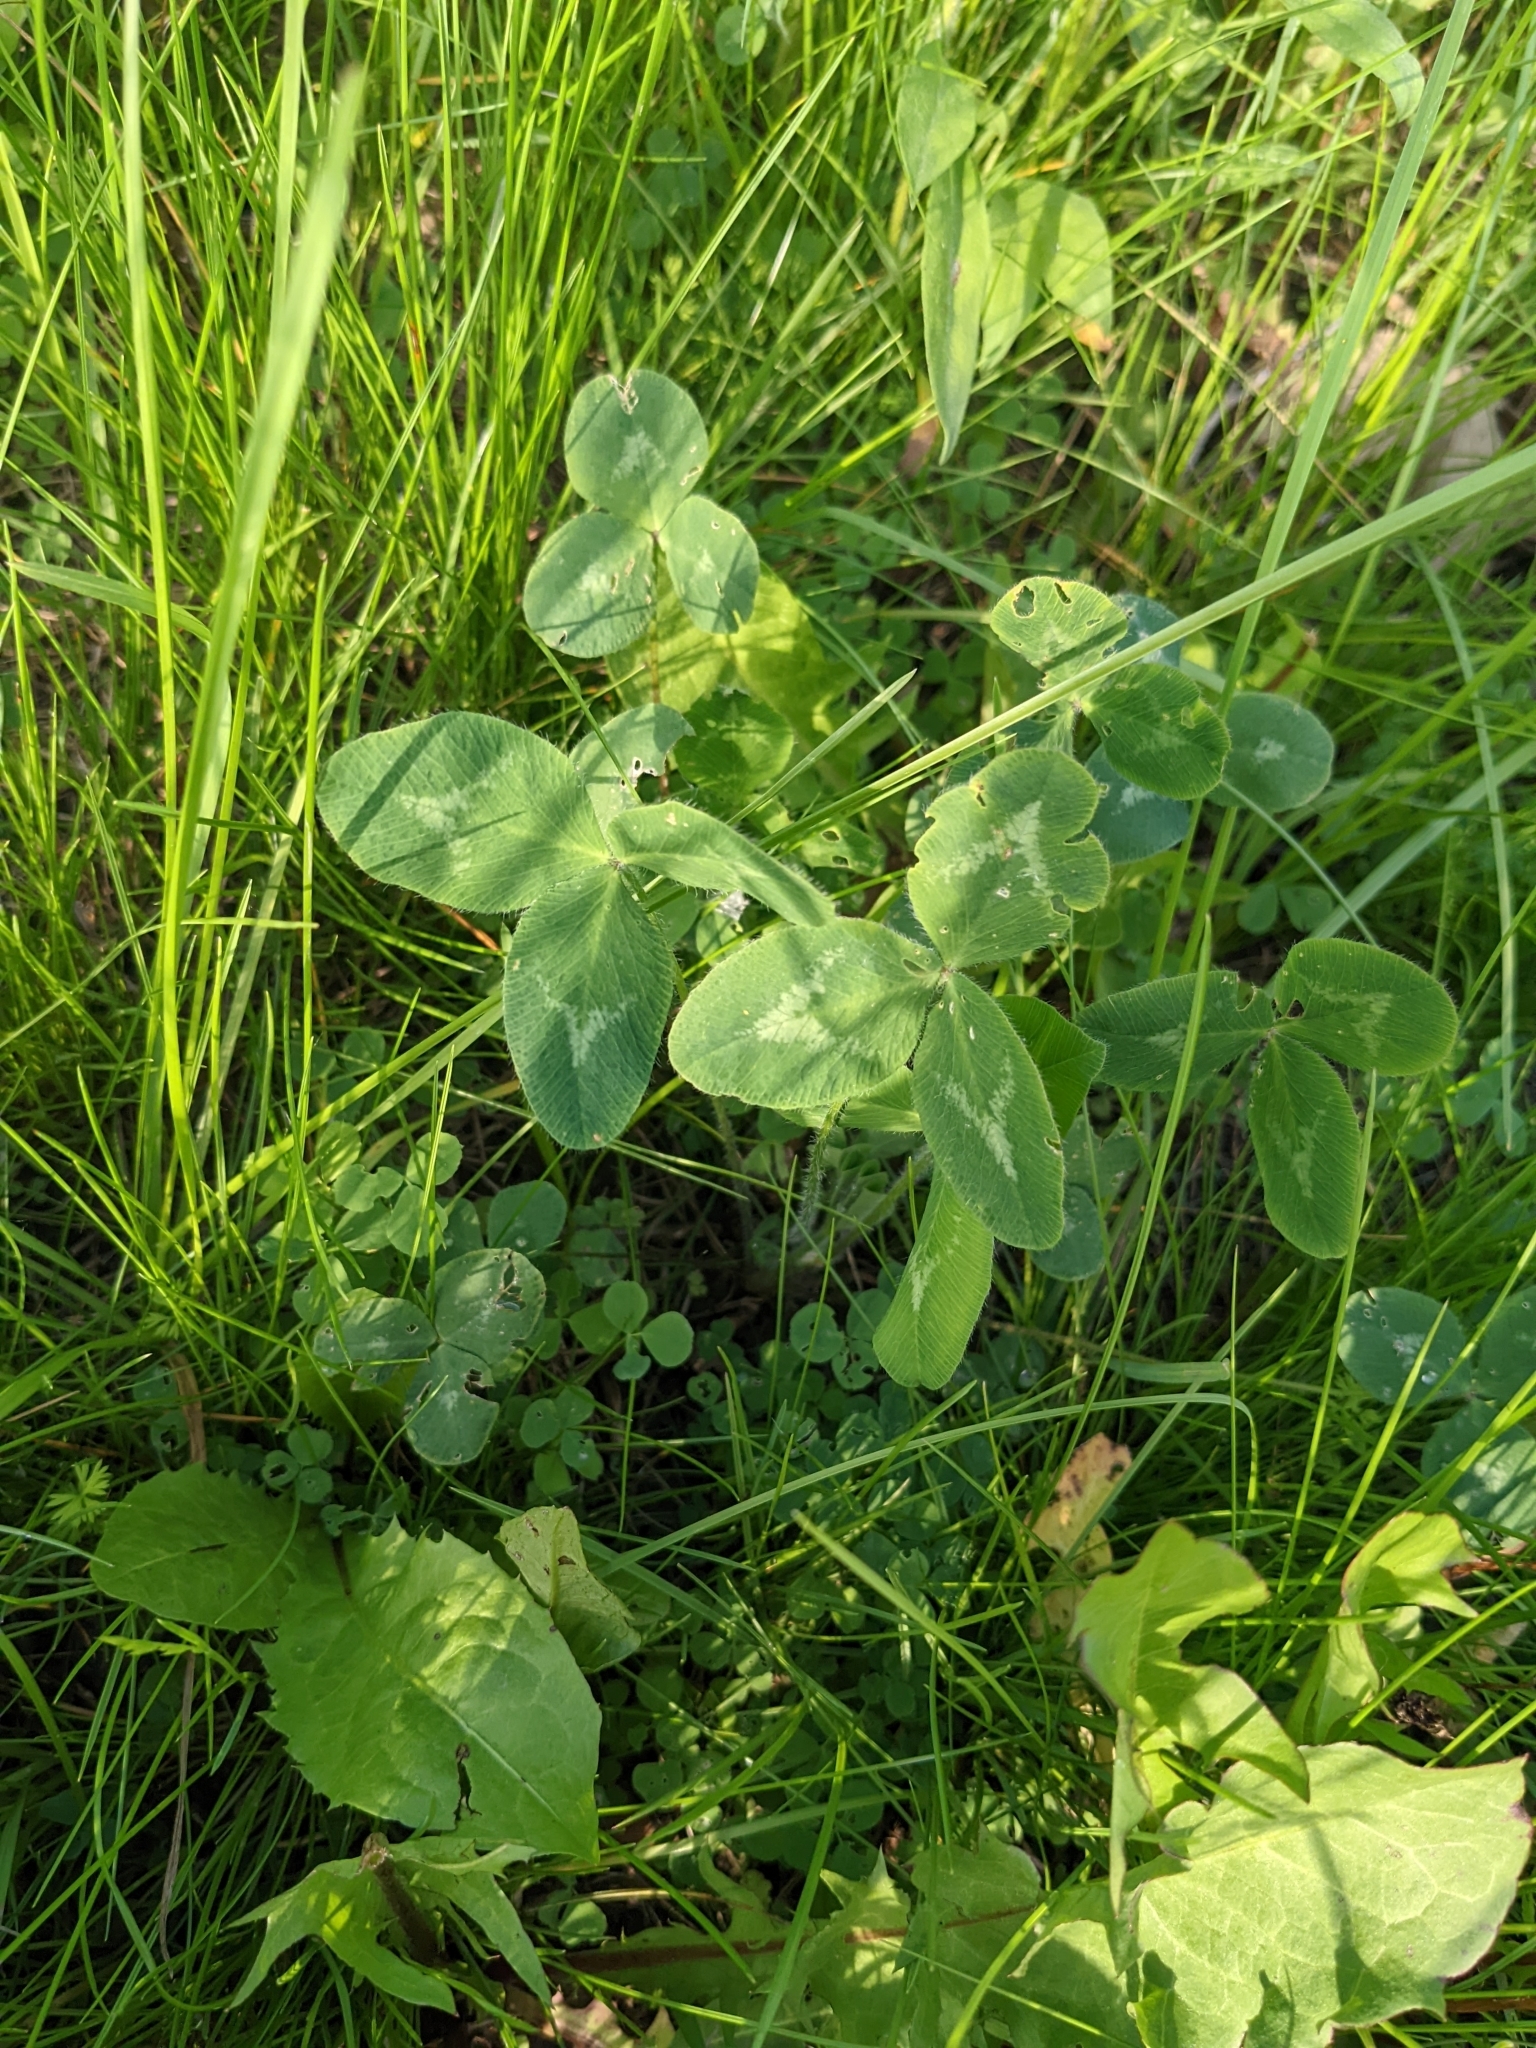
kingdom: Plantae
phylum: Tracheophyta
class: Magnoliopsida
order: Fabales
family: Fabaceae
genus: Trifolium
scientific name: Trifolium pratense
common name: Red clover
